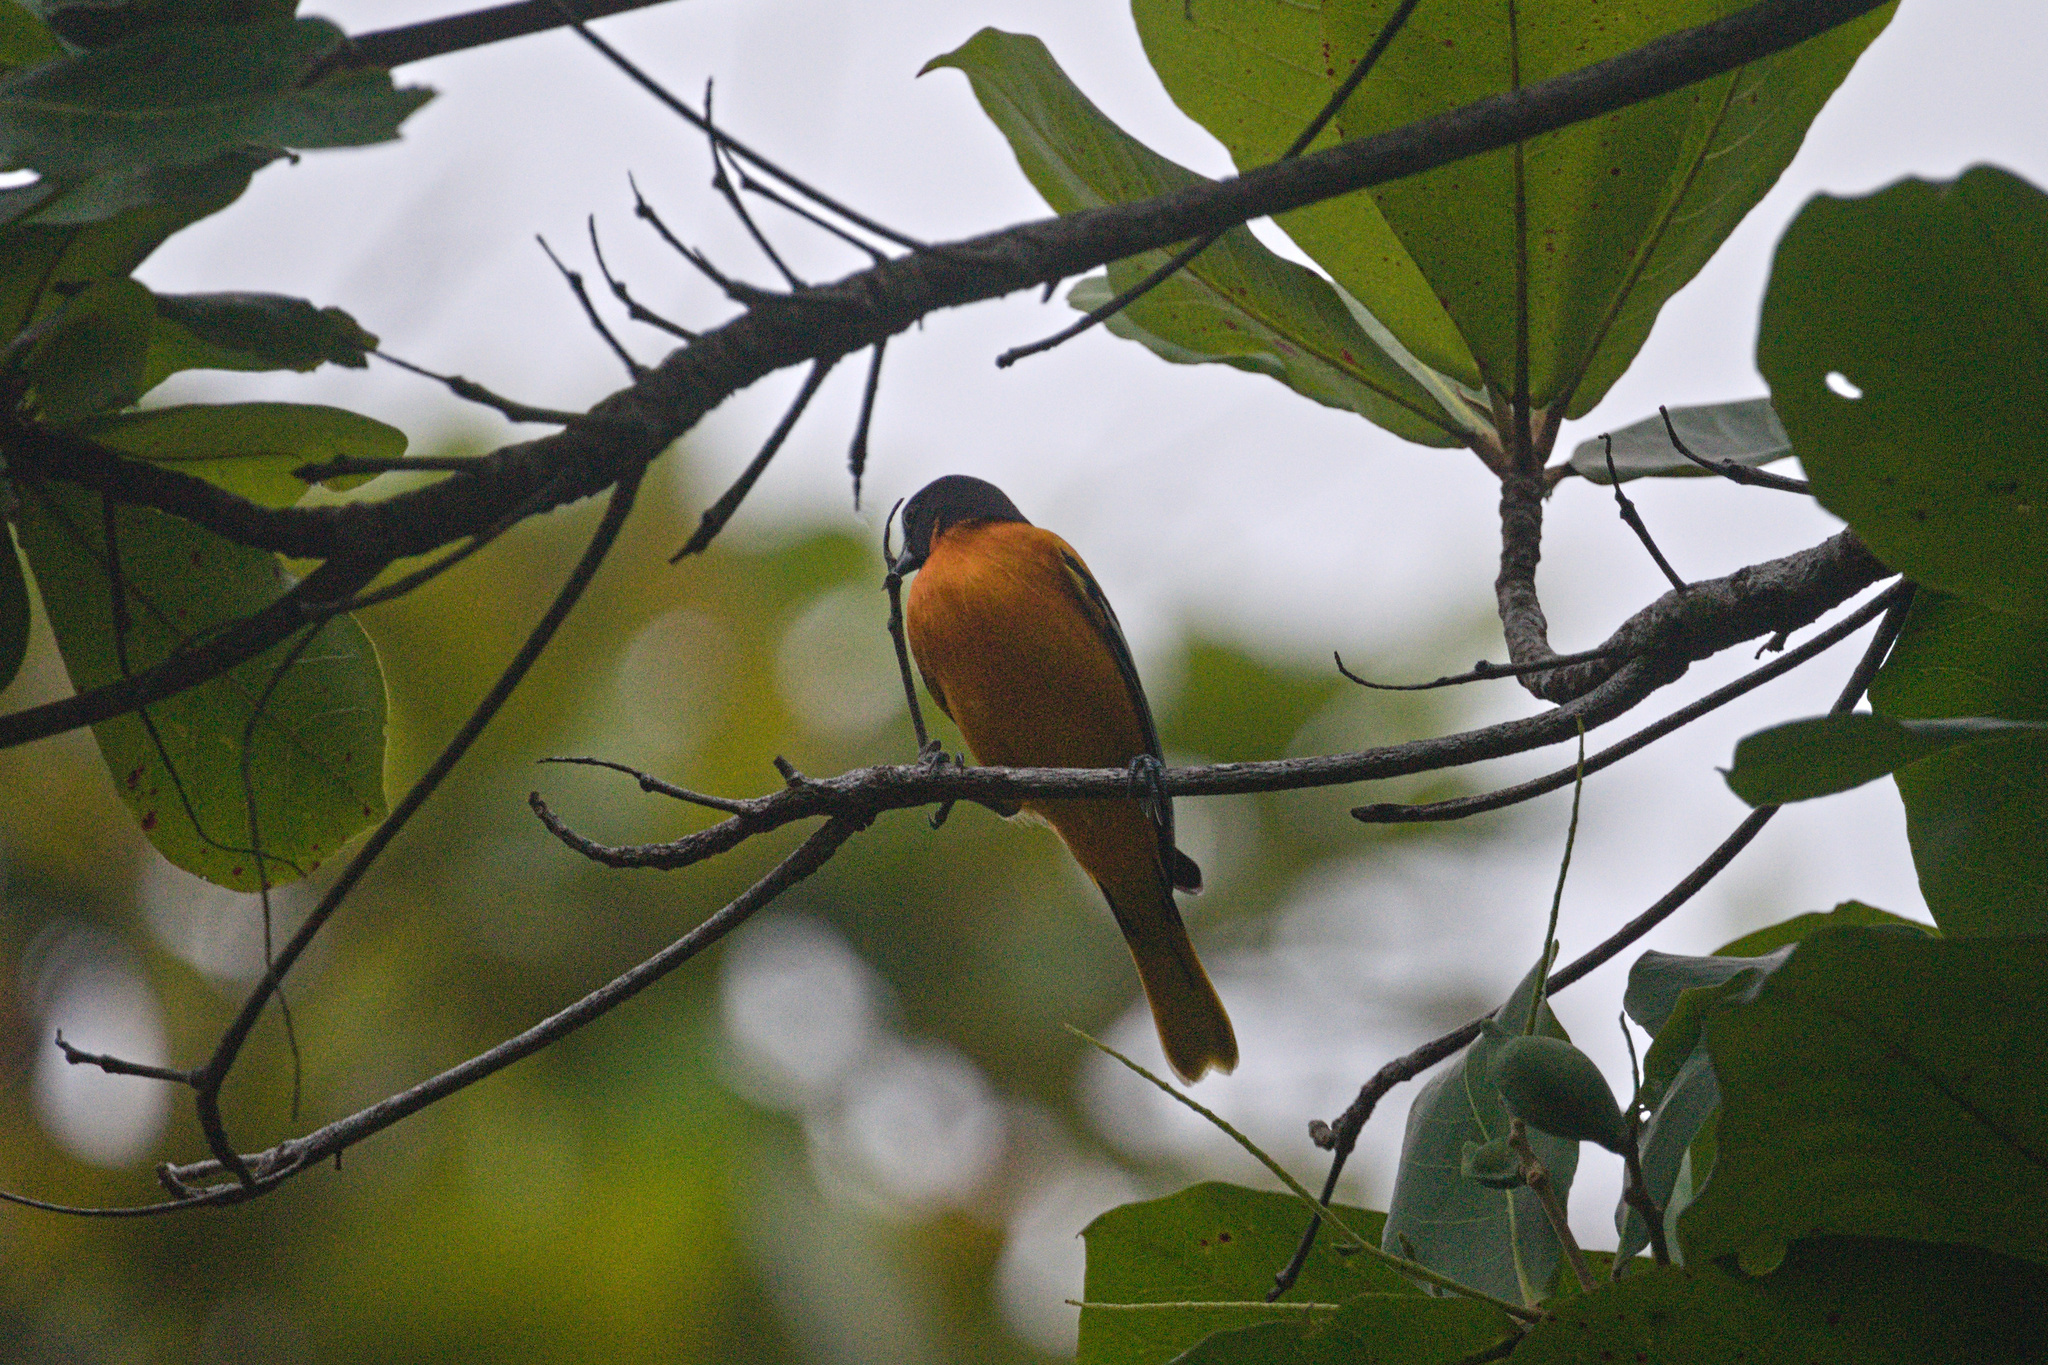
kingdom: Animalia
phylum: Chordata
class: Aves
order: Passeriformes
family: Icteridae
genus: Icterus
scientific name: Icterus galbula
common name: Baltimore oriole
